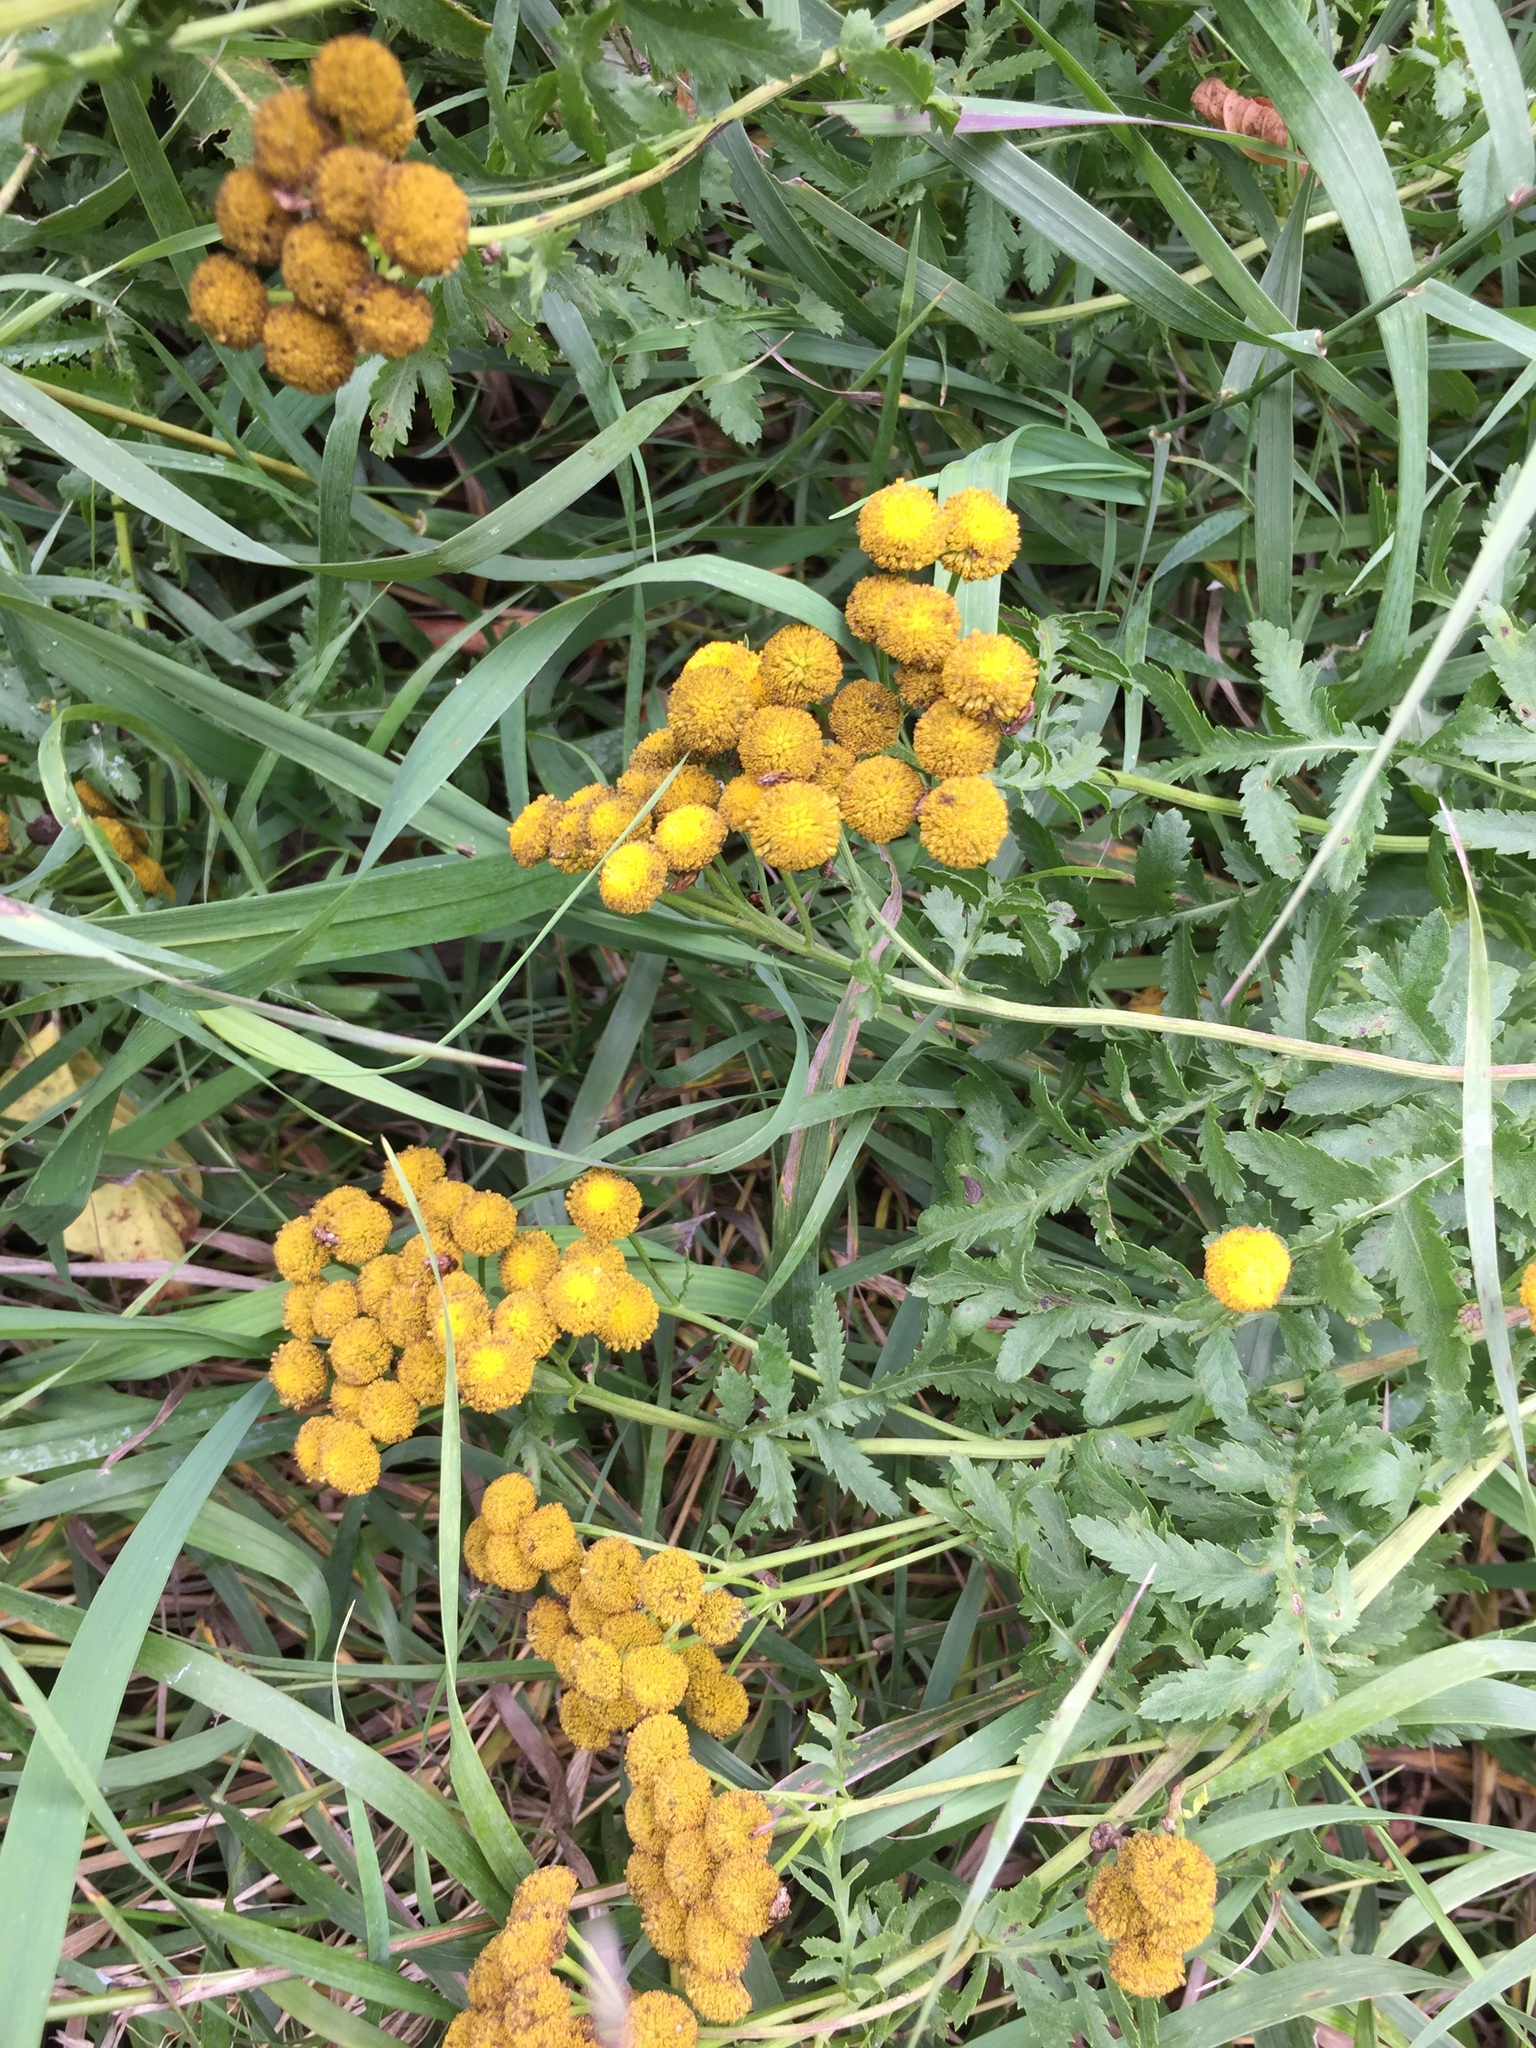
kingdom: Plantae
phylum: Tracheophyta
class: Magnoliopsida
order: Asterales
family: Asteraceae
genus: Tanacetum
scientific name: Tanacetum vulgare
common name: Common tansy
